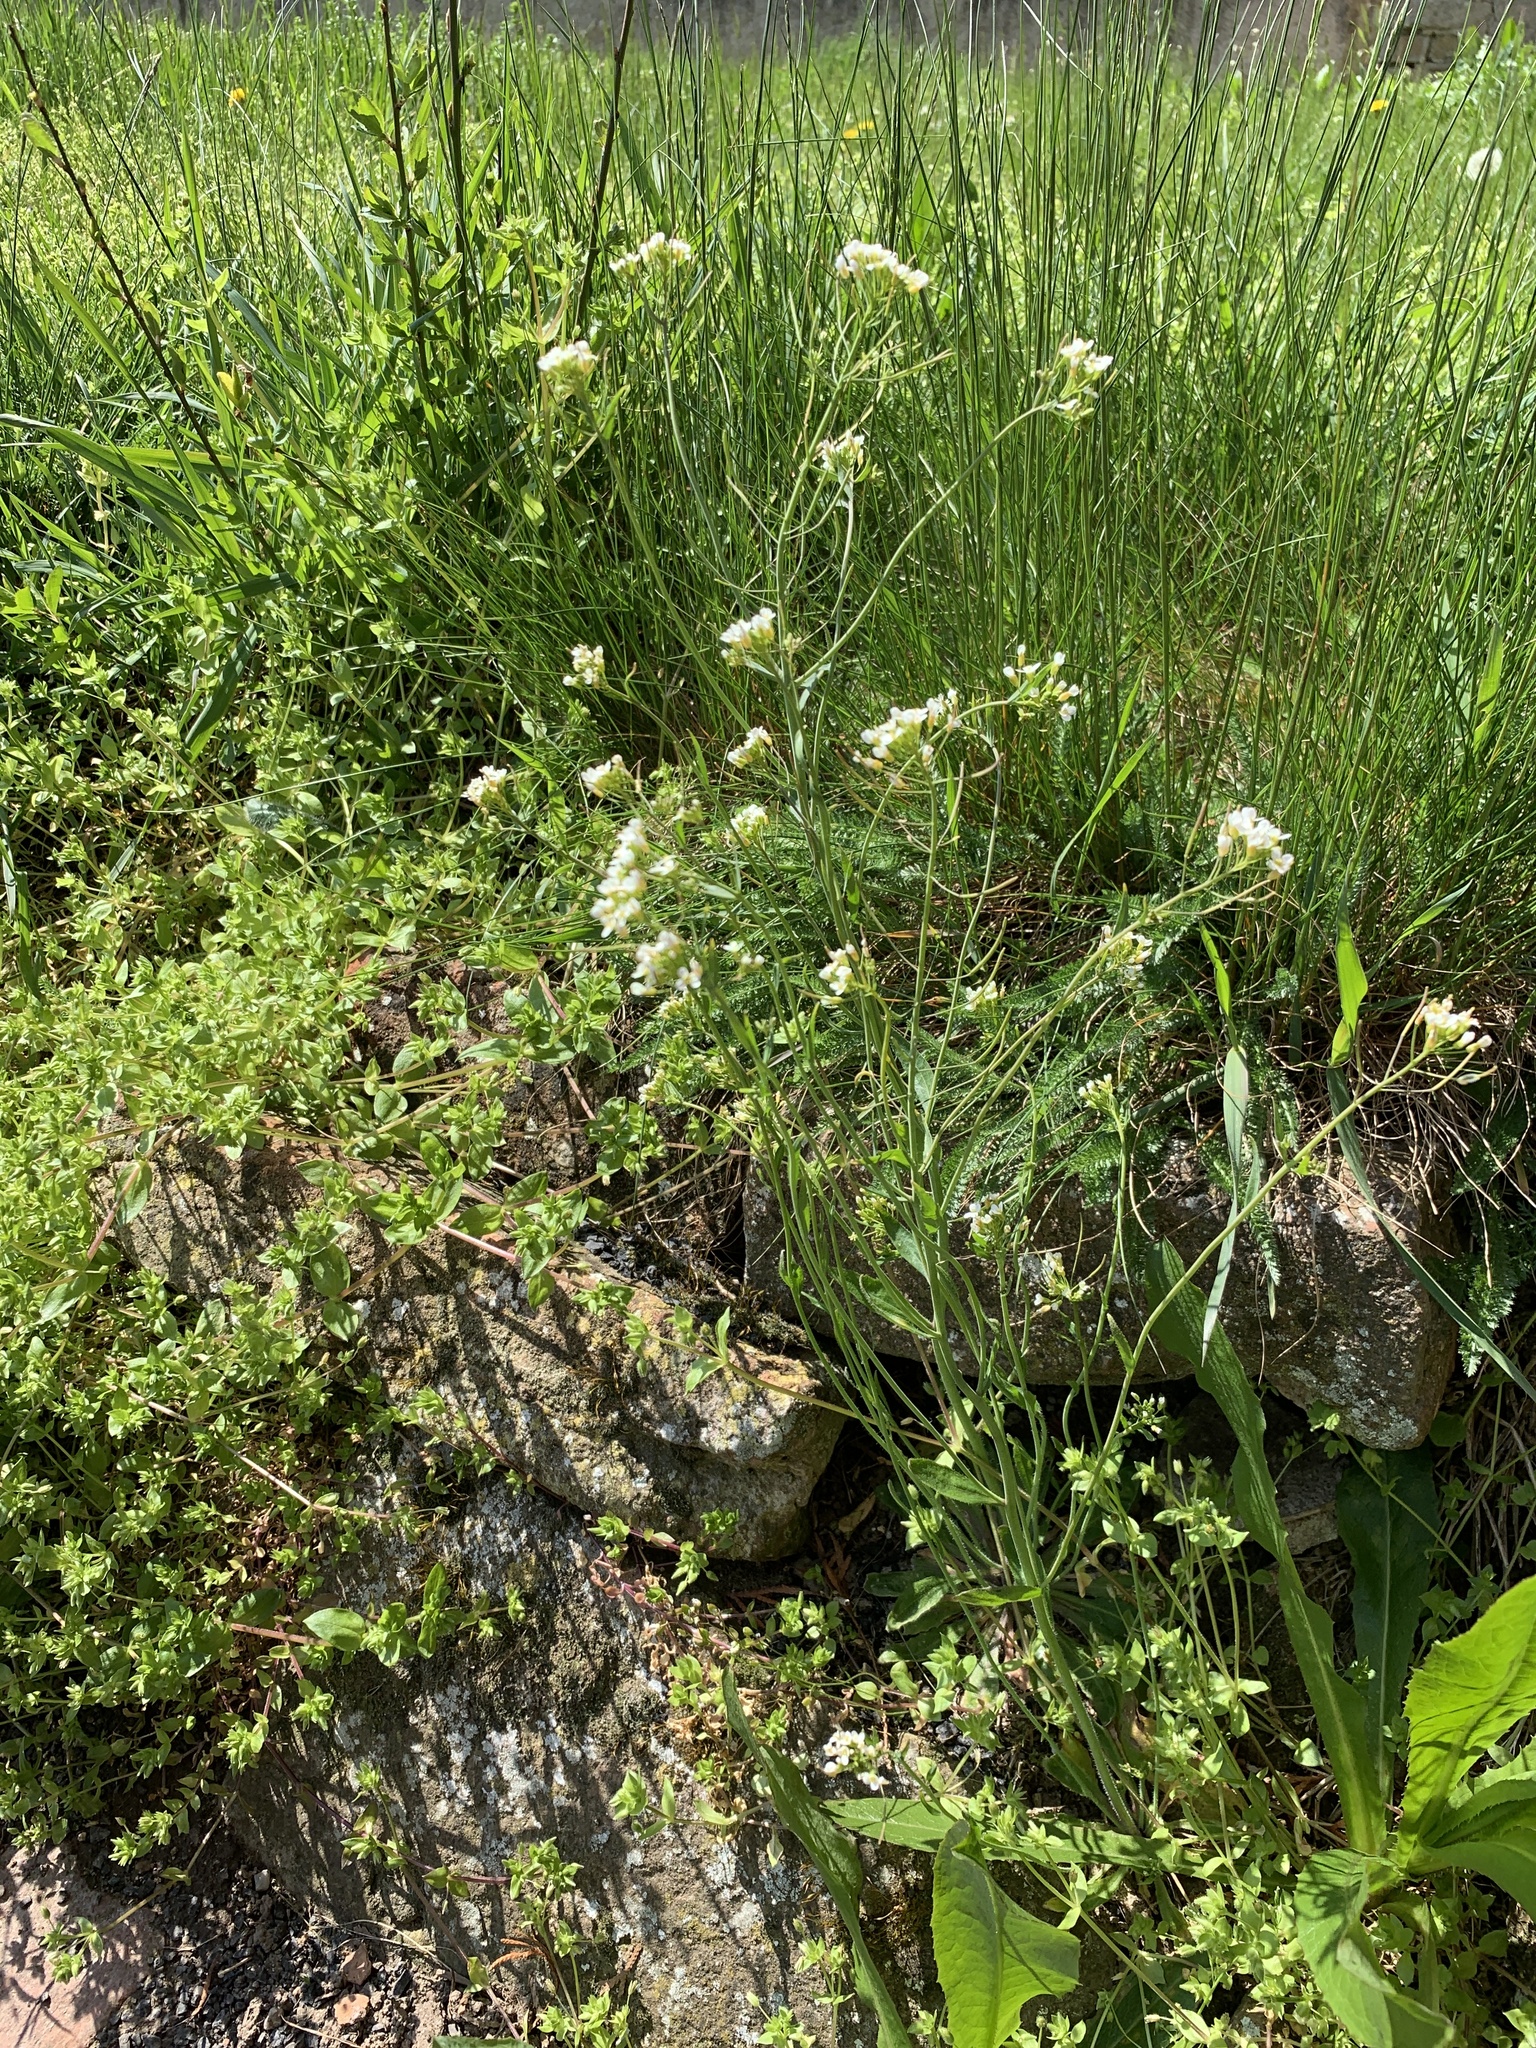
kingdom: Plantae
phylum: Tracheophyta
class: Magnoliopsida
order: Brassicales
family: Brassicaceae
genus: Arabidopsis
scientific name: Arabidopsis thaliana
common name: Thale cress
